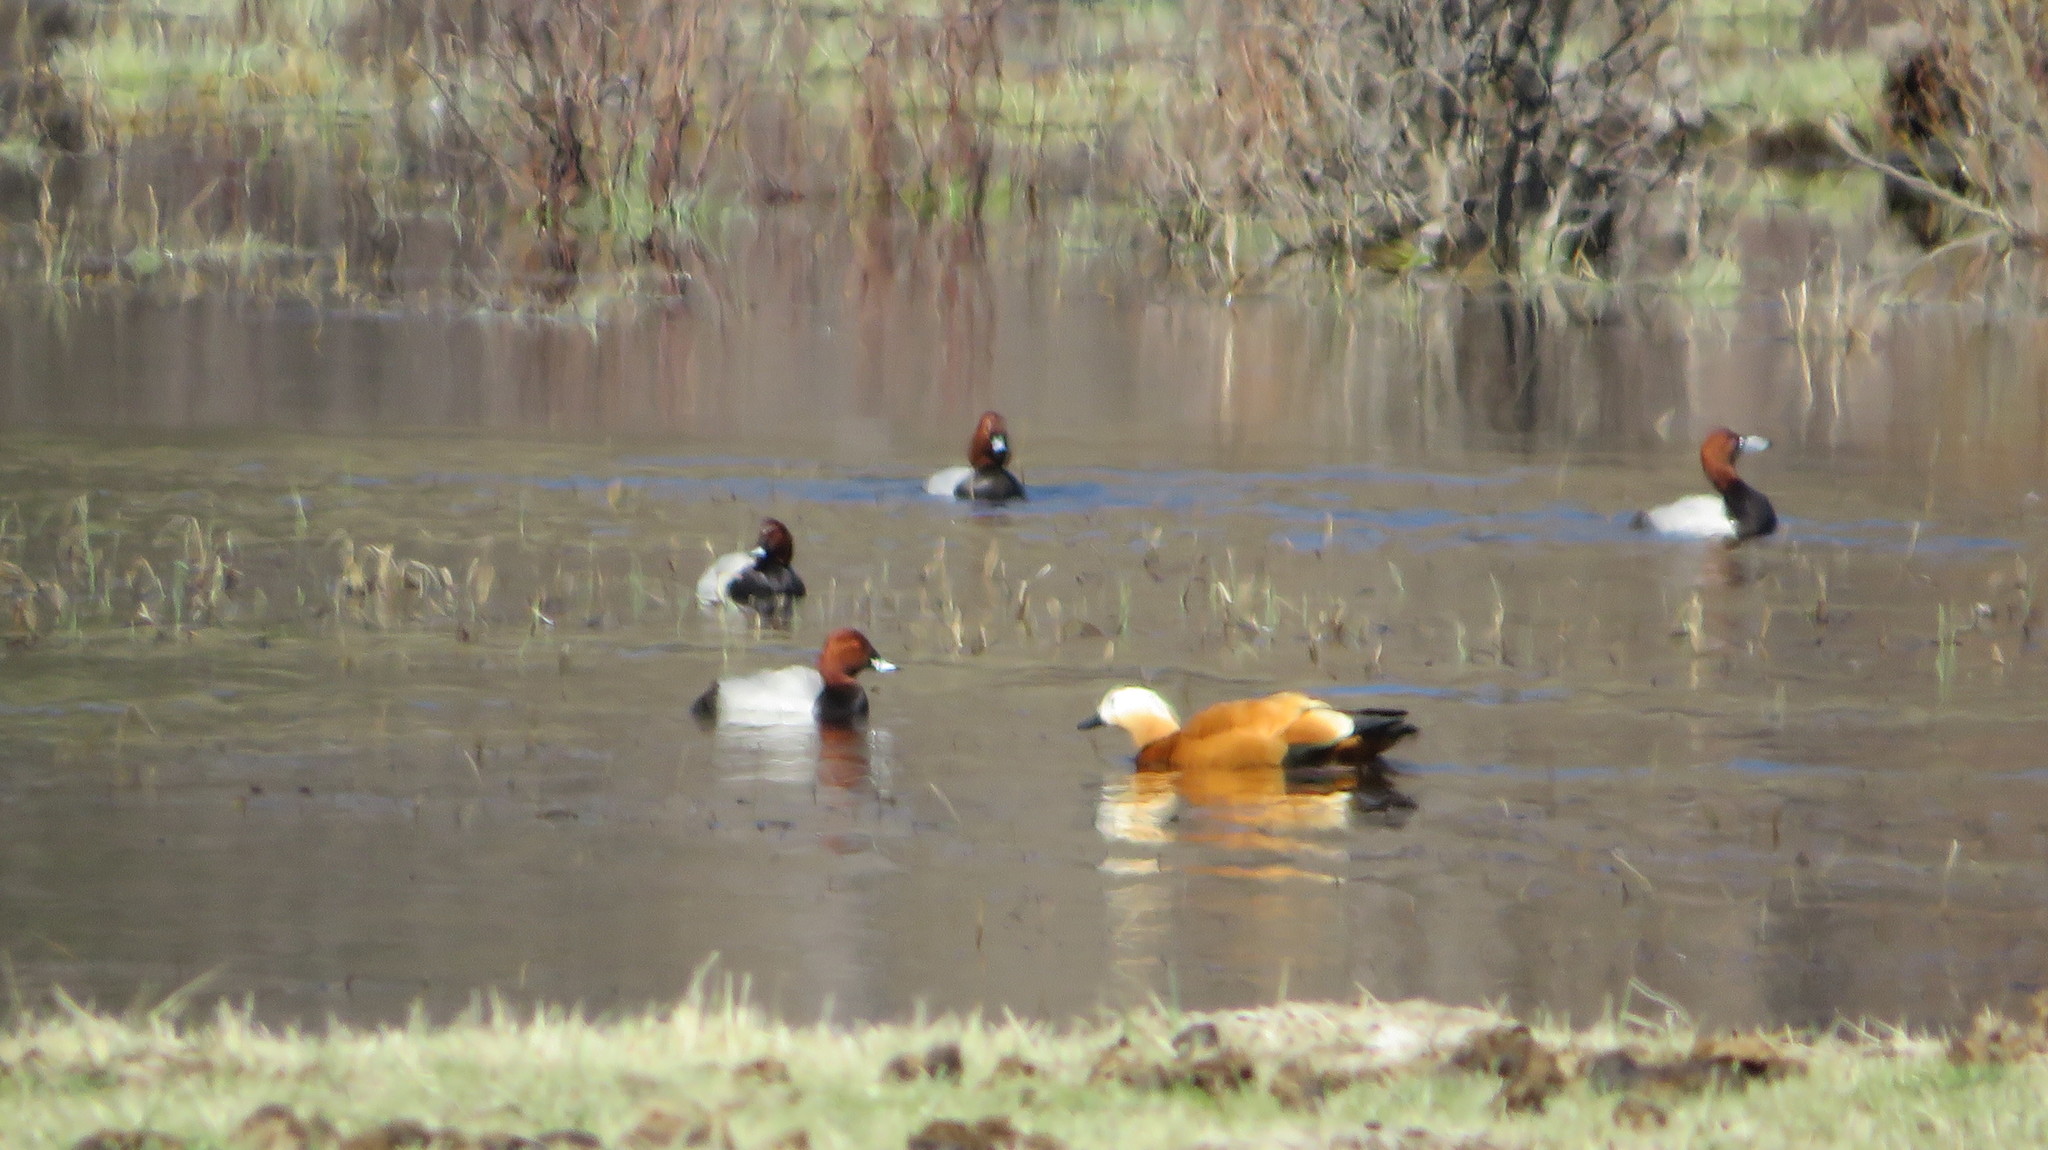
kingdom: Animalia
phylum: Chordata
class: Aves
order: Anseriformes
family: Anatidae
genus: Aythya
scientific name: Aythya ferina
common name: Common pochard
